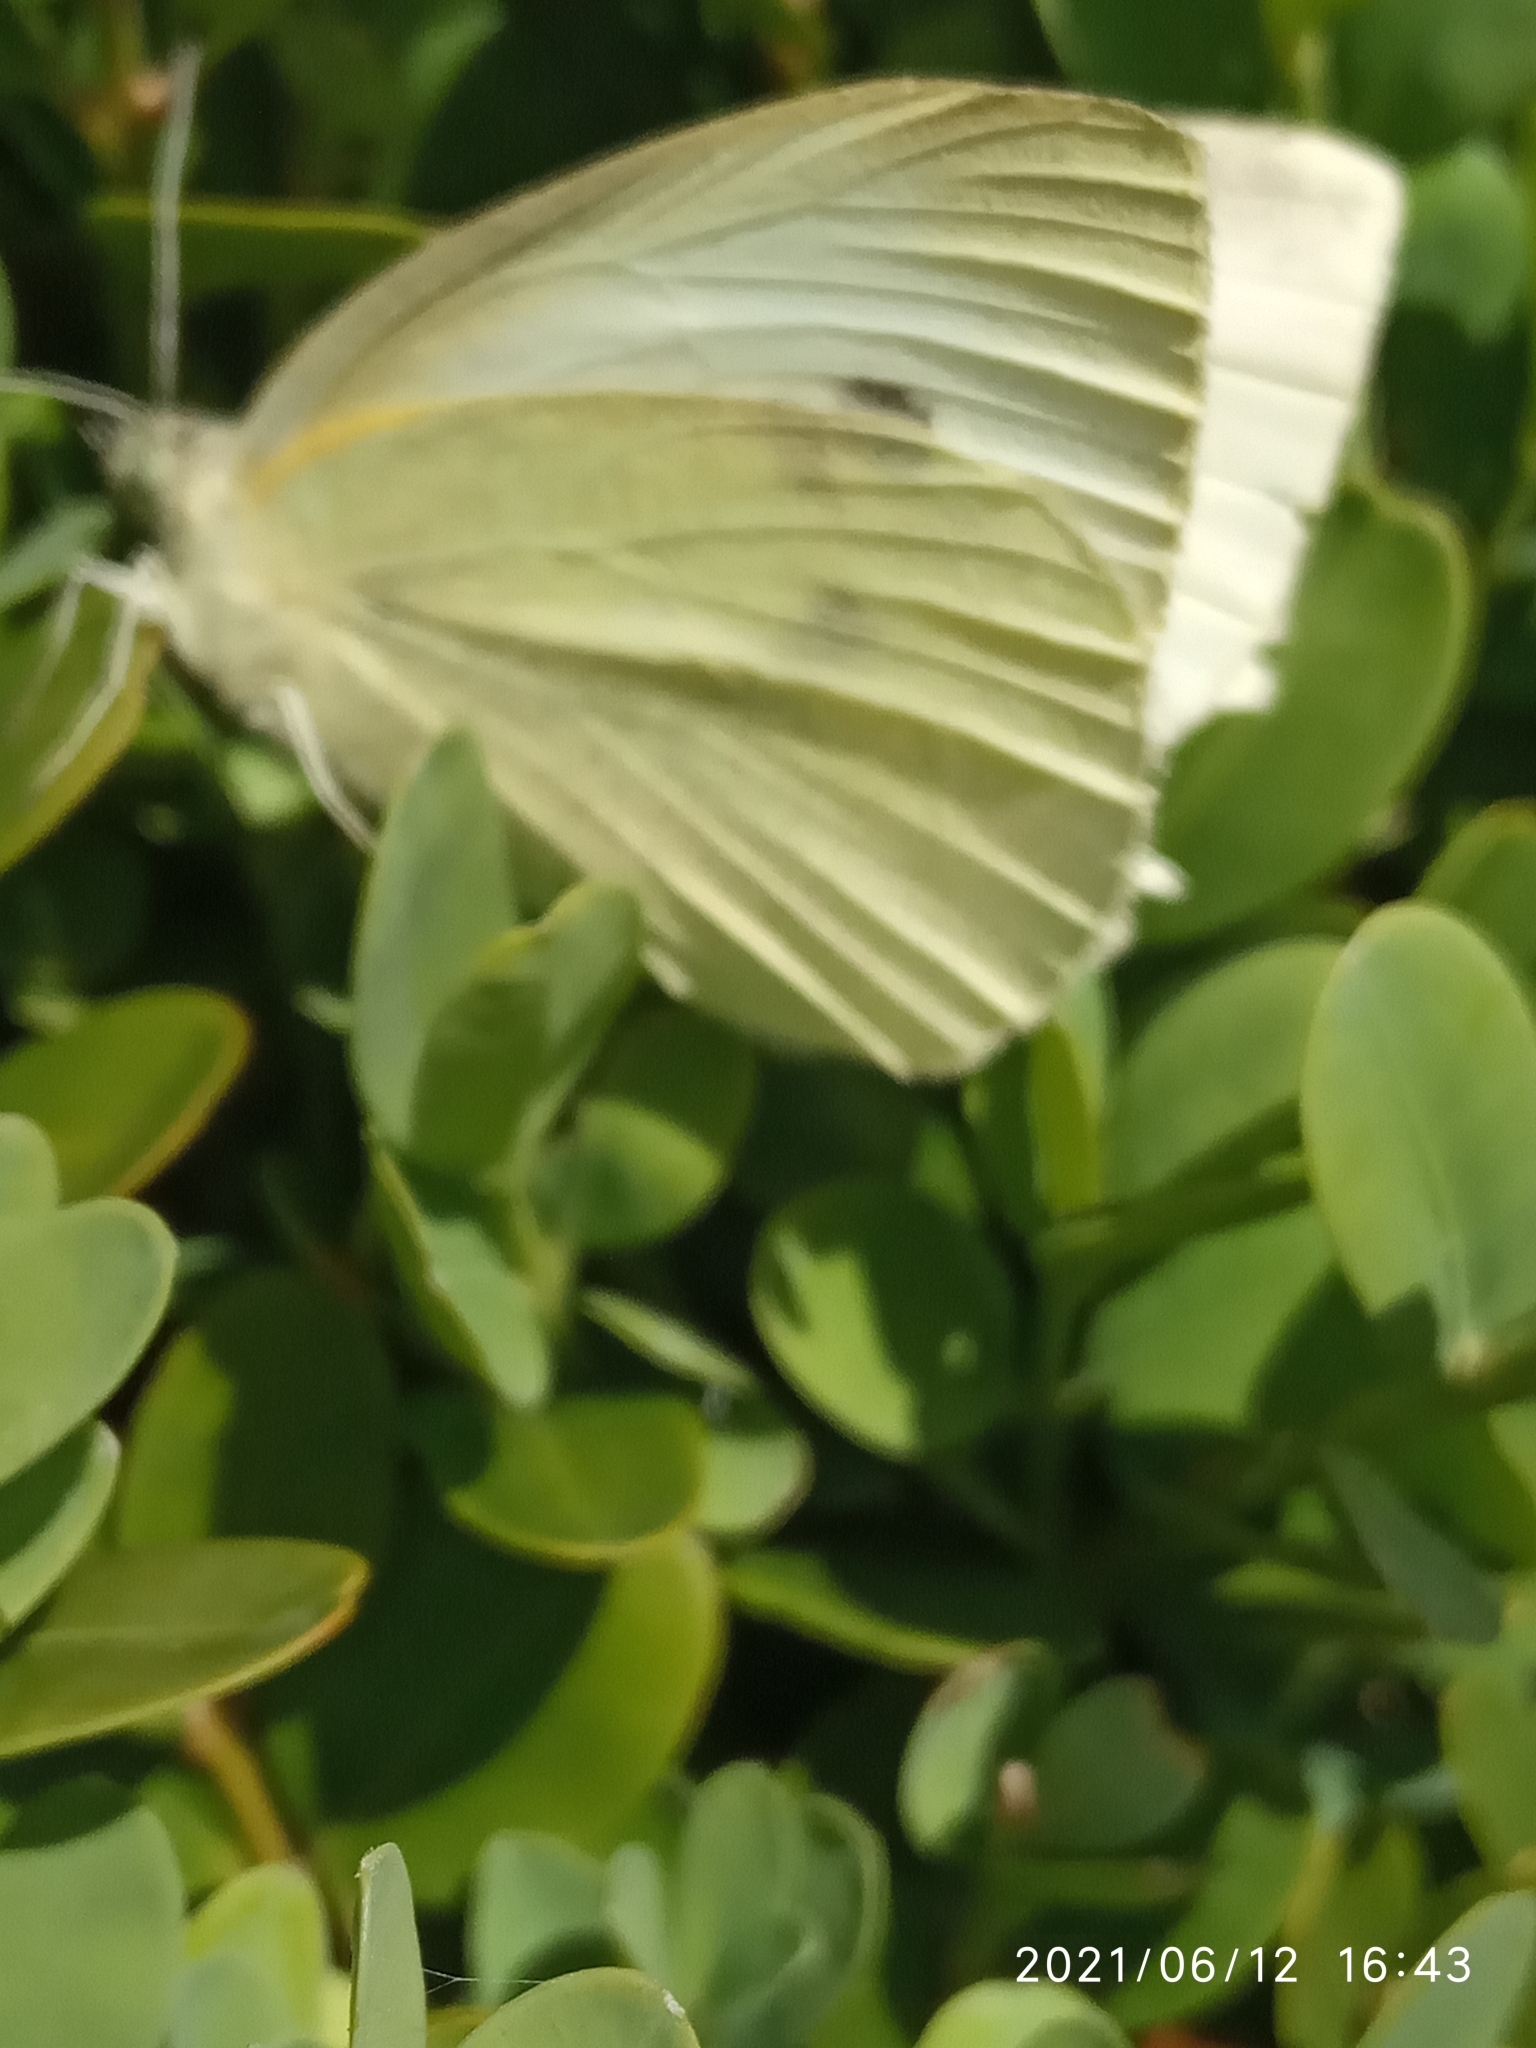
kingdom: Animalia
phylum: Arthropoda
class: Insecta
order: Lepidoptera
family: Pieridae
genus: Pieris
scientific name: Pieris rapae
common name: Small white
